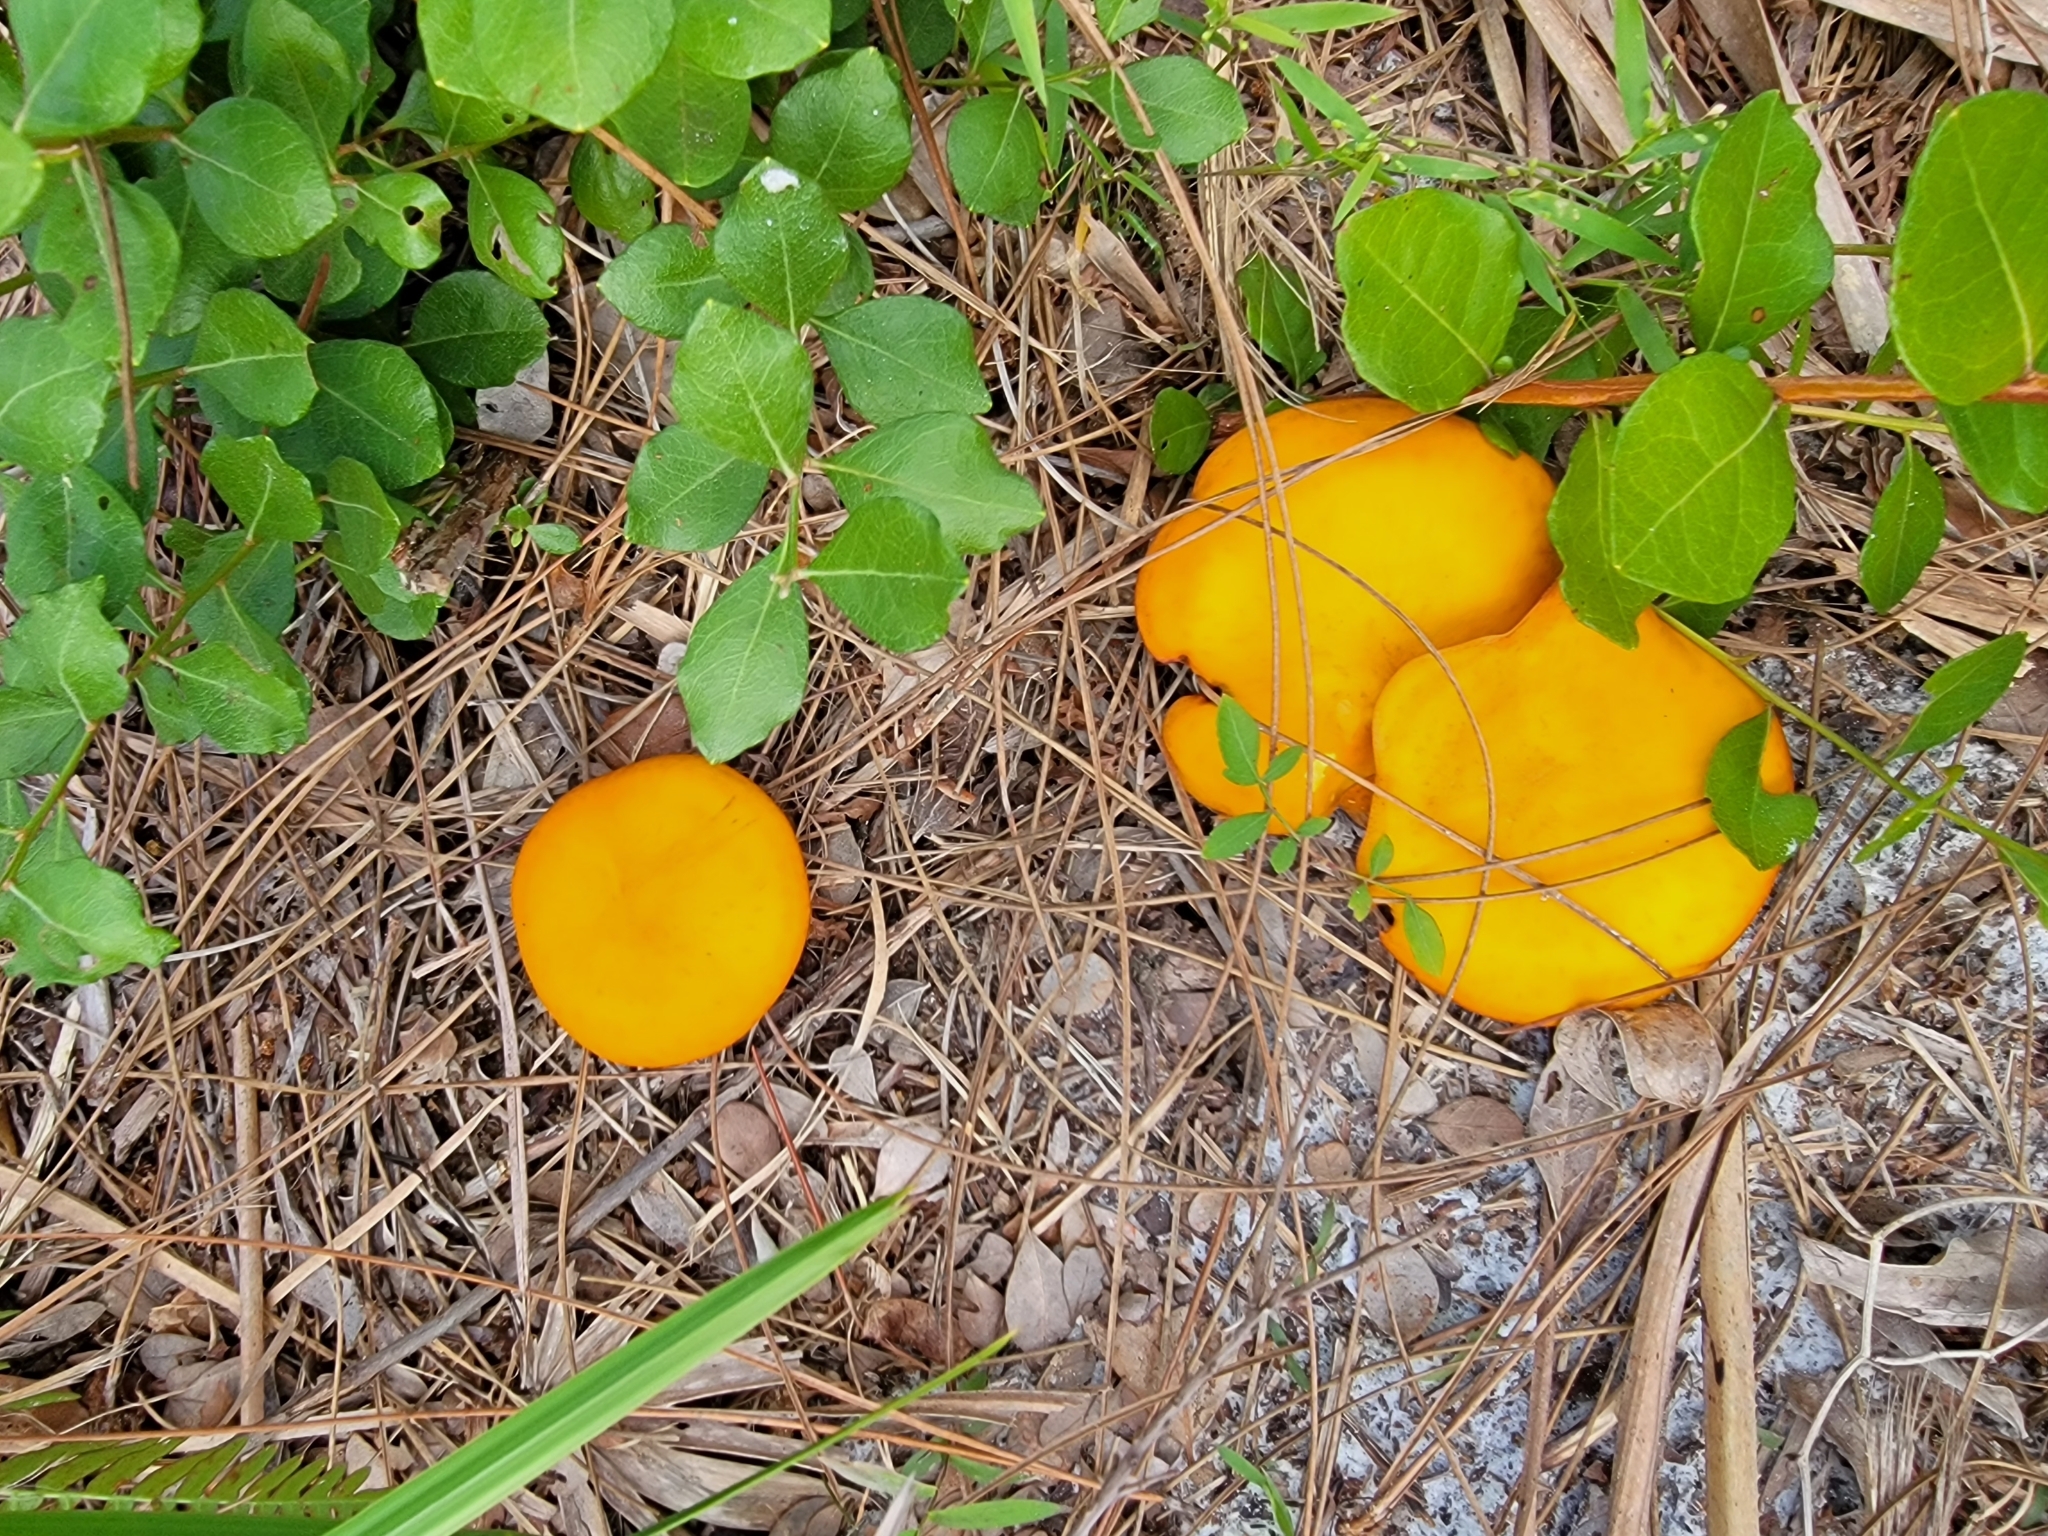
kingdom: Fungi
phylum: Basidiomycota
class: Agaricomycetes
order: Agaricales
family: Omphalotaceae
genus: Omphalotus
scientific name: Omphalotus subilludens
